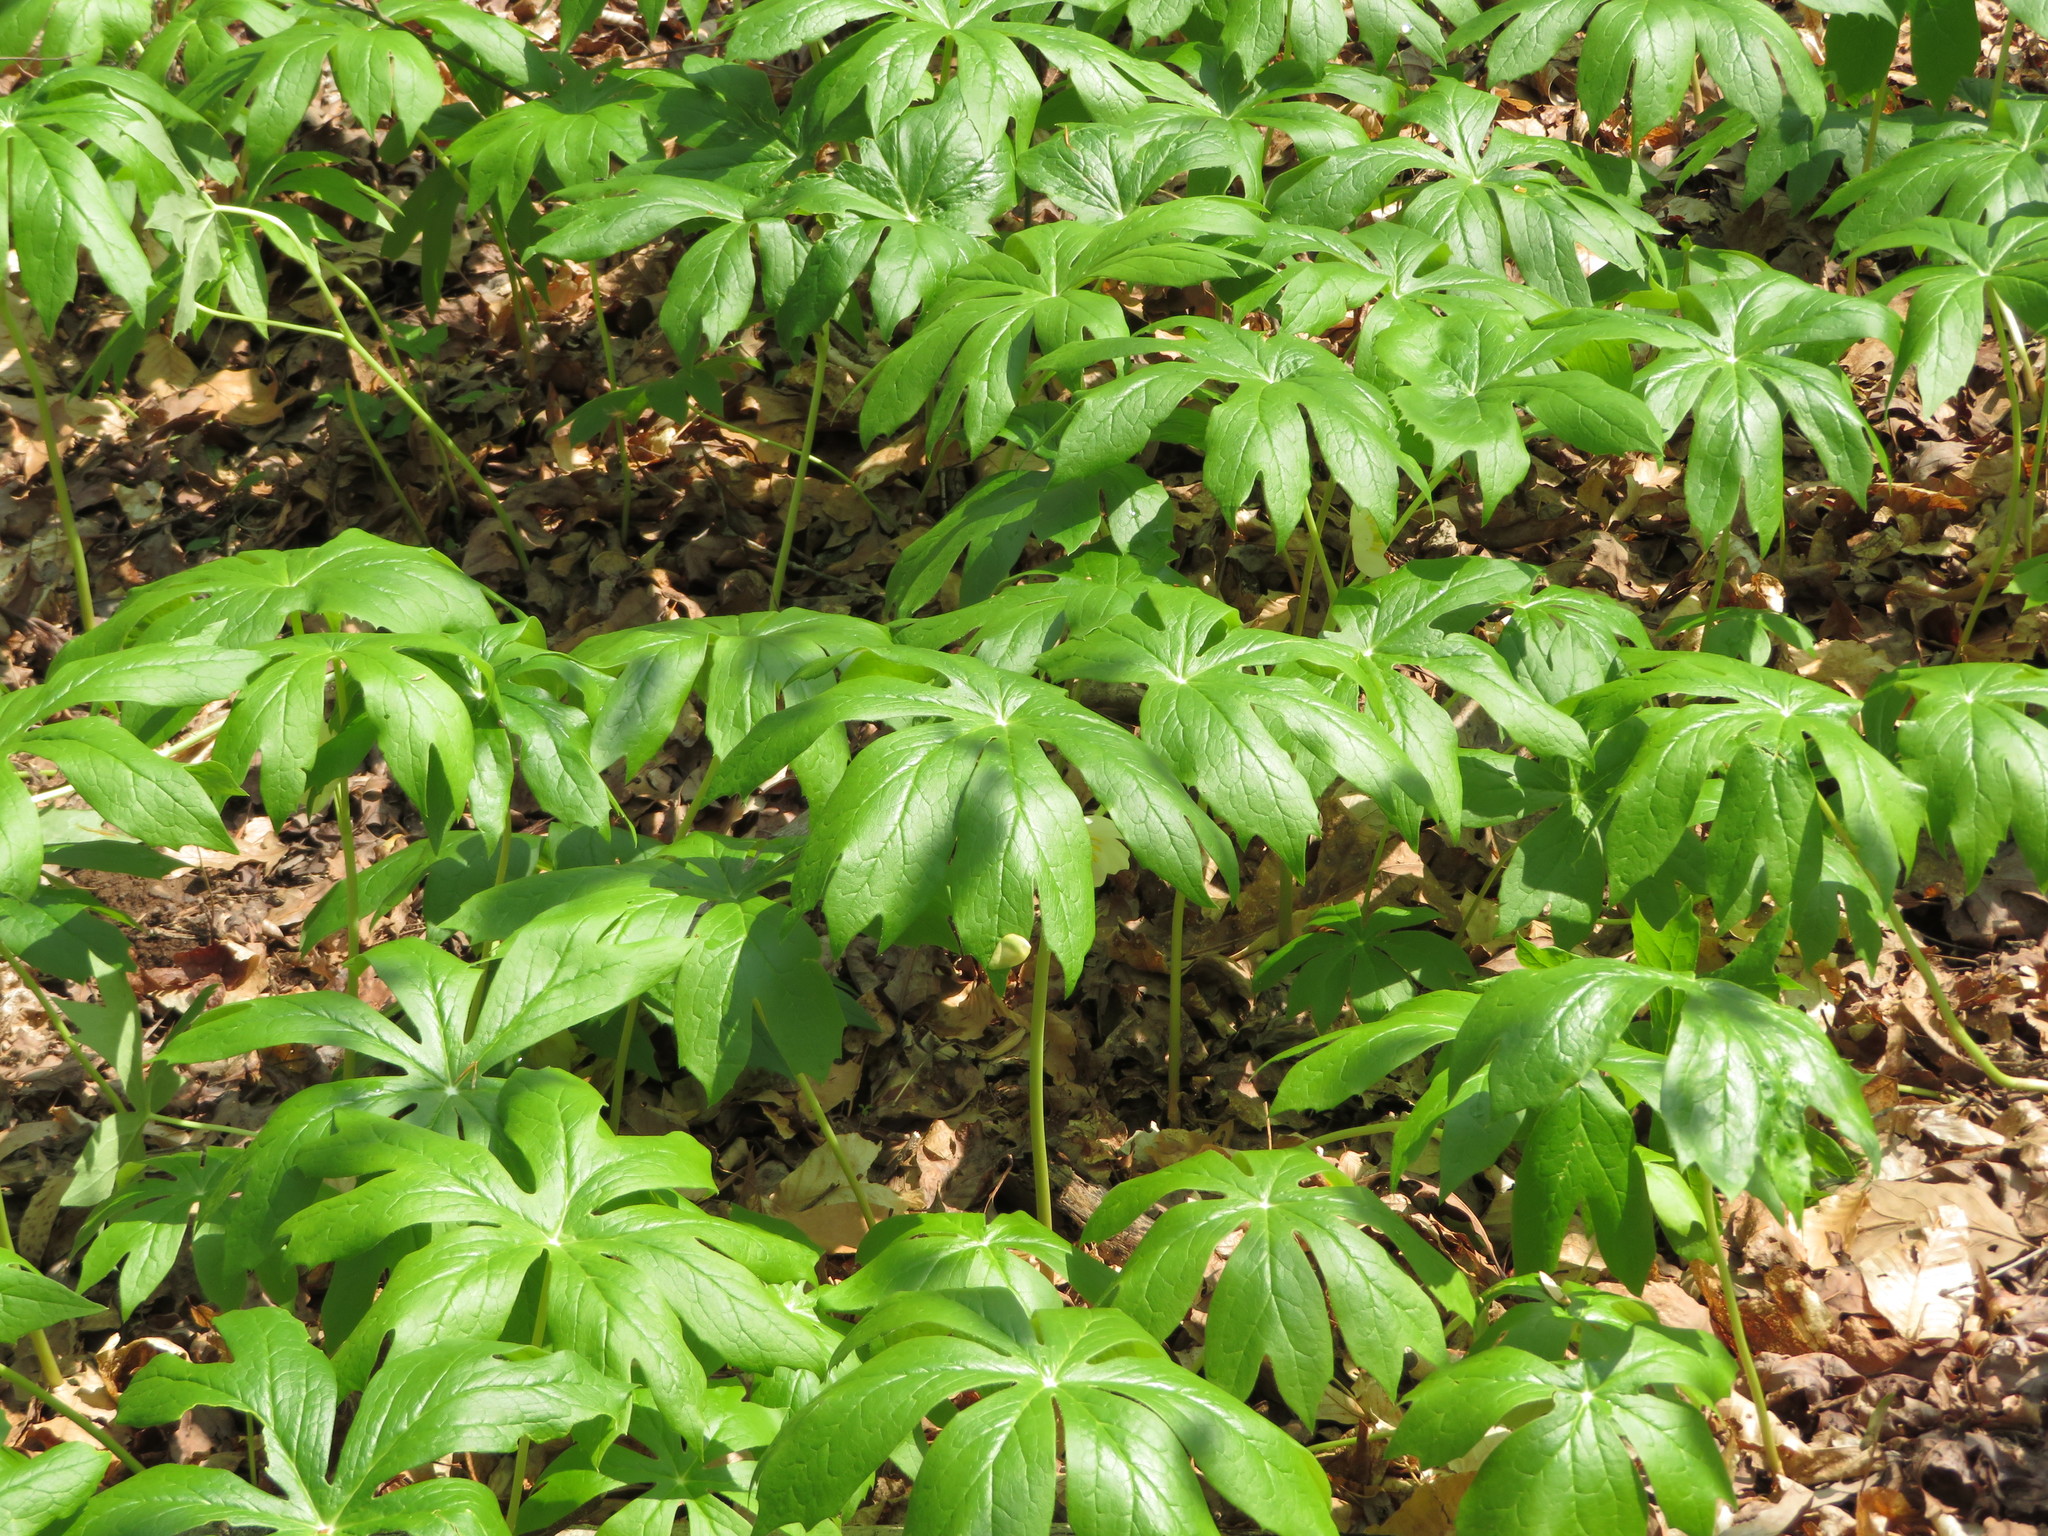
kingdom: Plantae
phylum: Tracheophyta
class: Magnoliopsida
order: Ranunculales
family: Berberidaceae
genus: Podophyllum
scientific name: Podophyllum peltatum
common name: Wild mandrake
